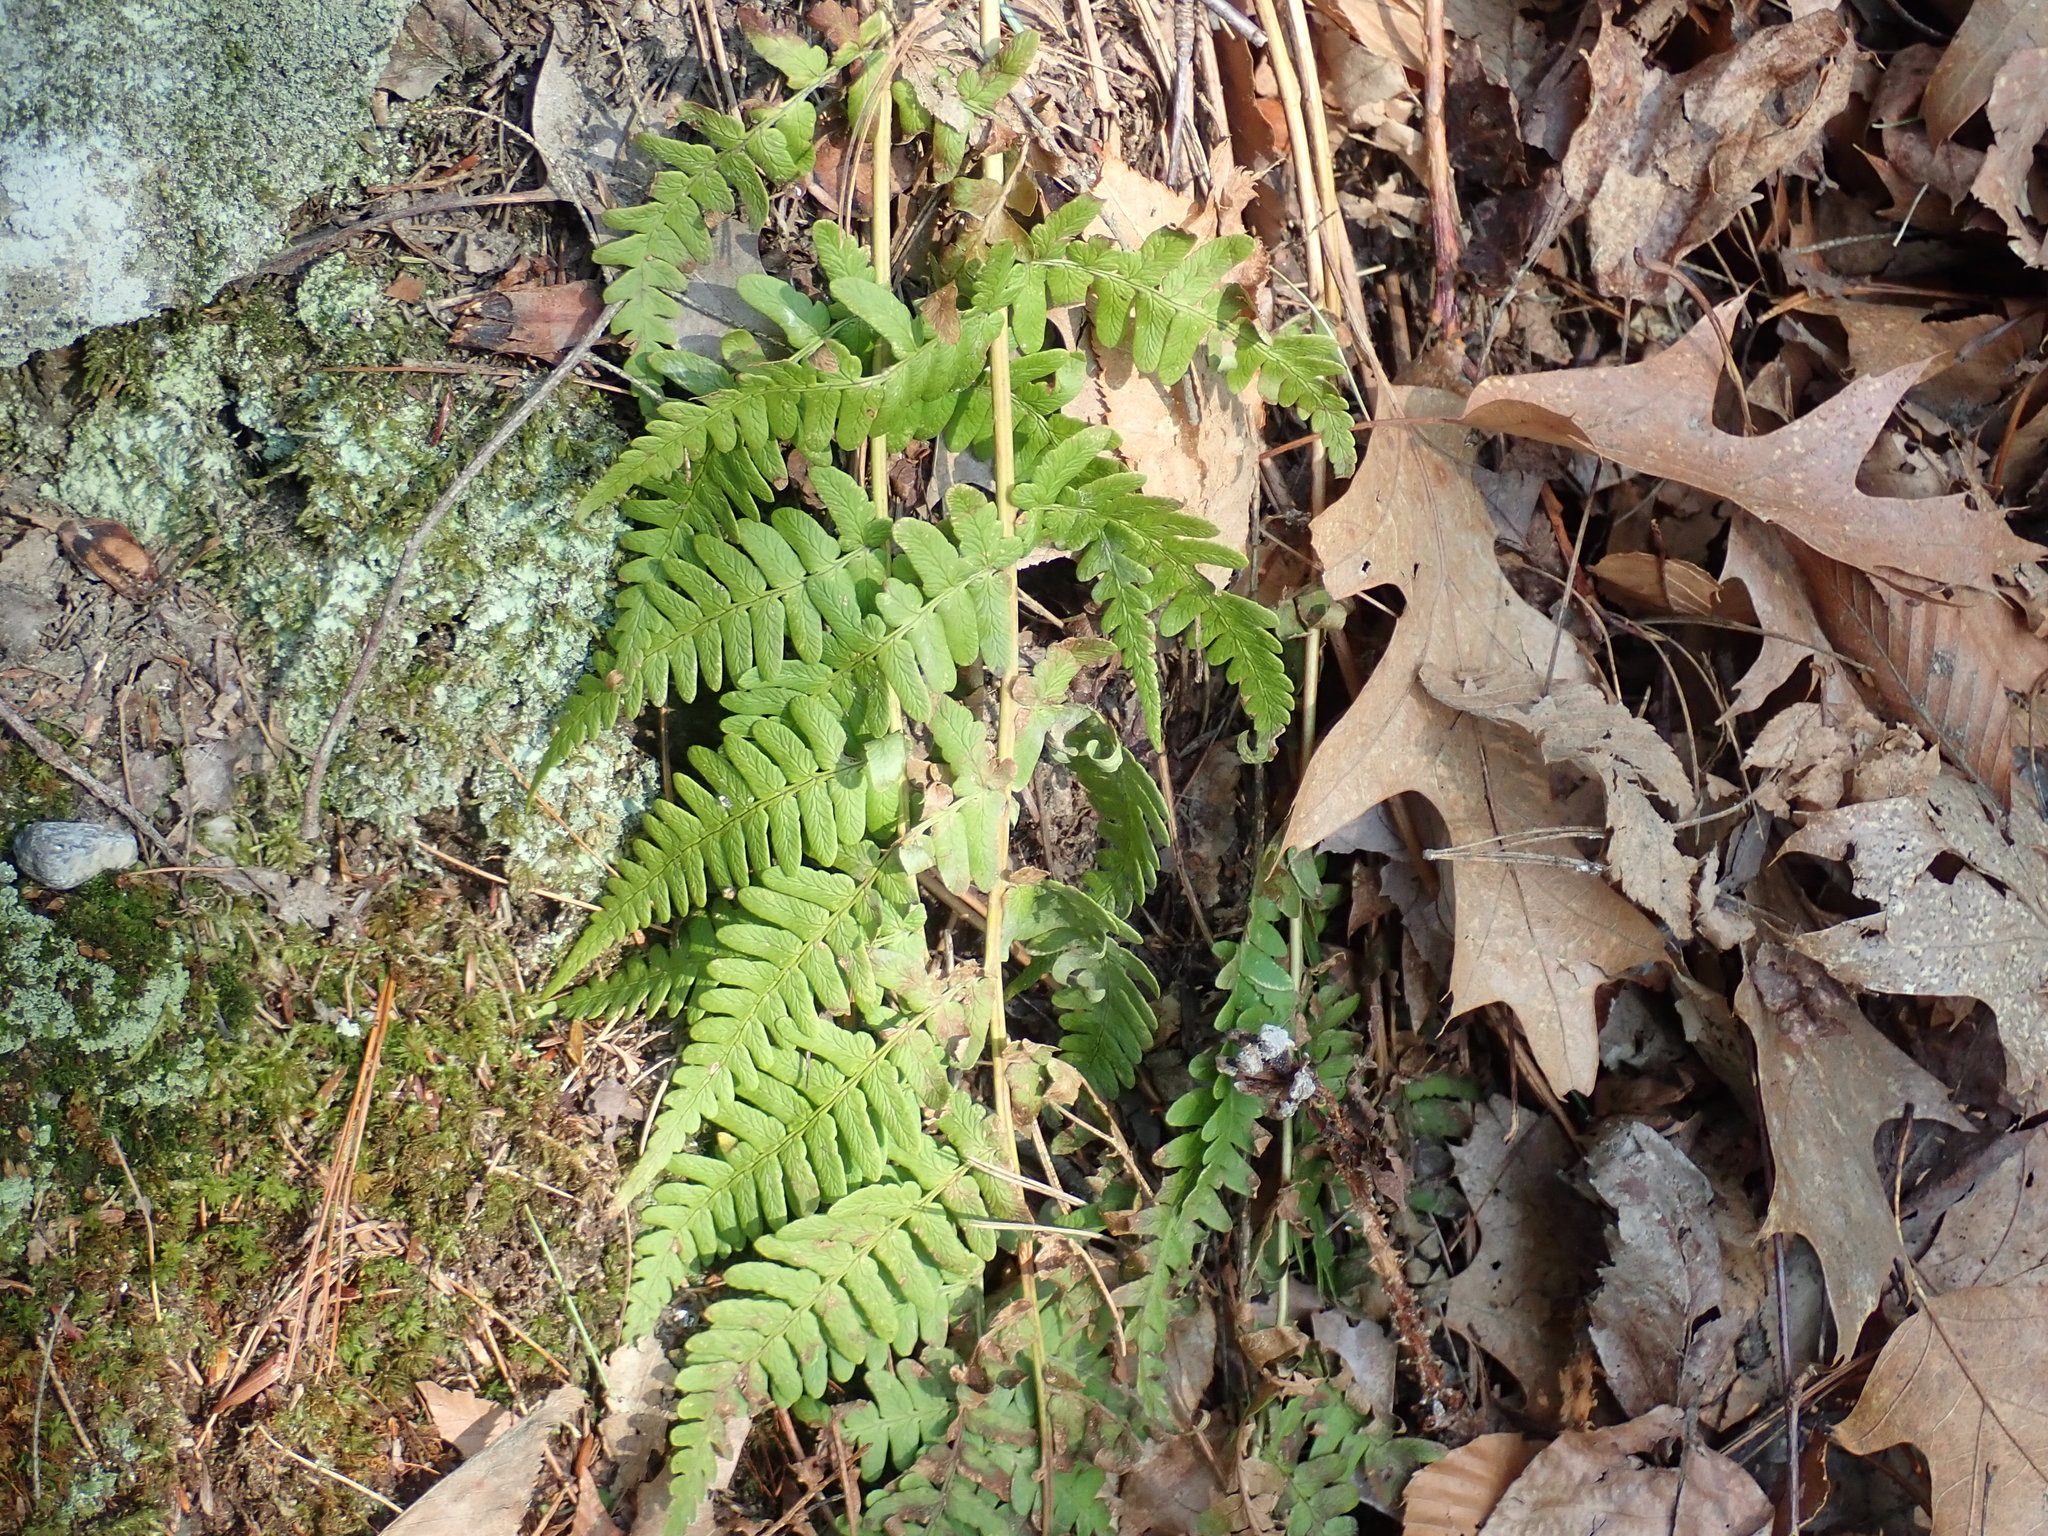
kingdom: Plantae
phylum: Tracheophyta
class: Polypodiopsida
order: Polypodiales
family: Dryopteridaceae
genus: Dryopteris
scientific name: Dryopteris marginalis
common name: Marginal wood fern
